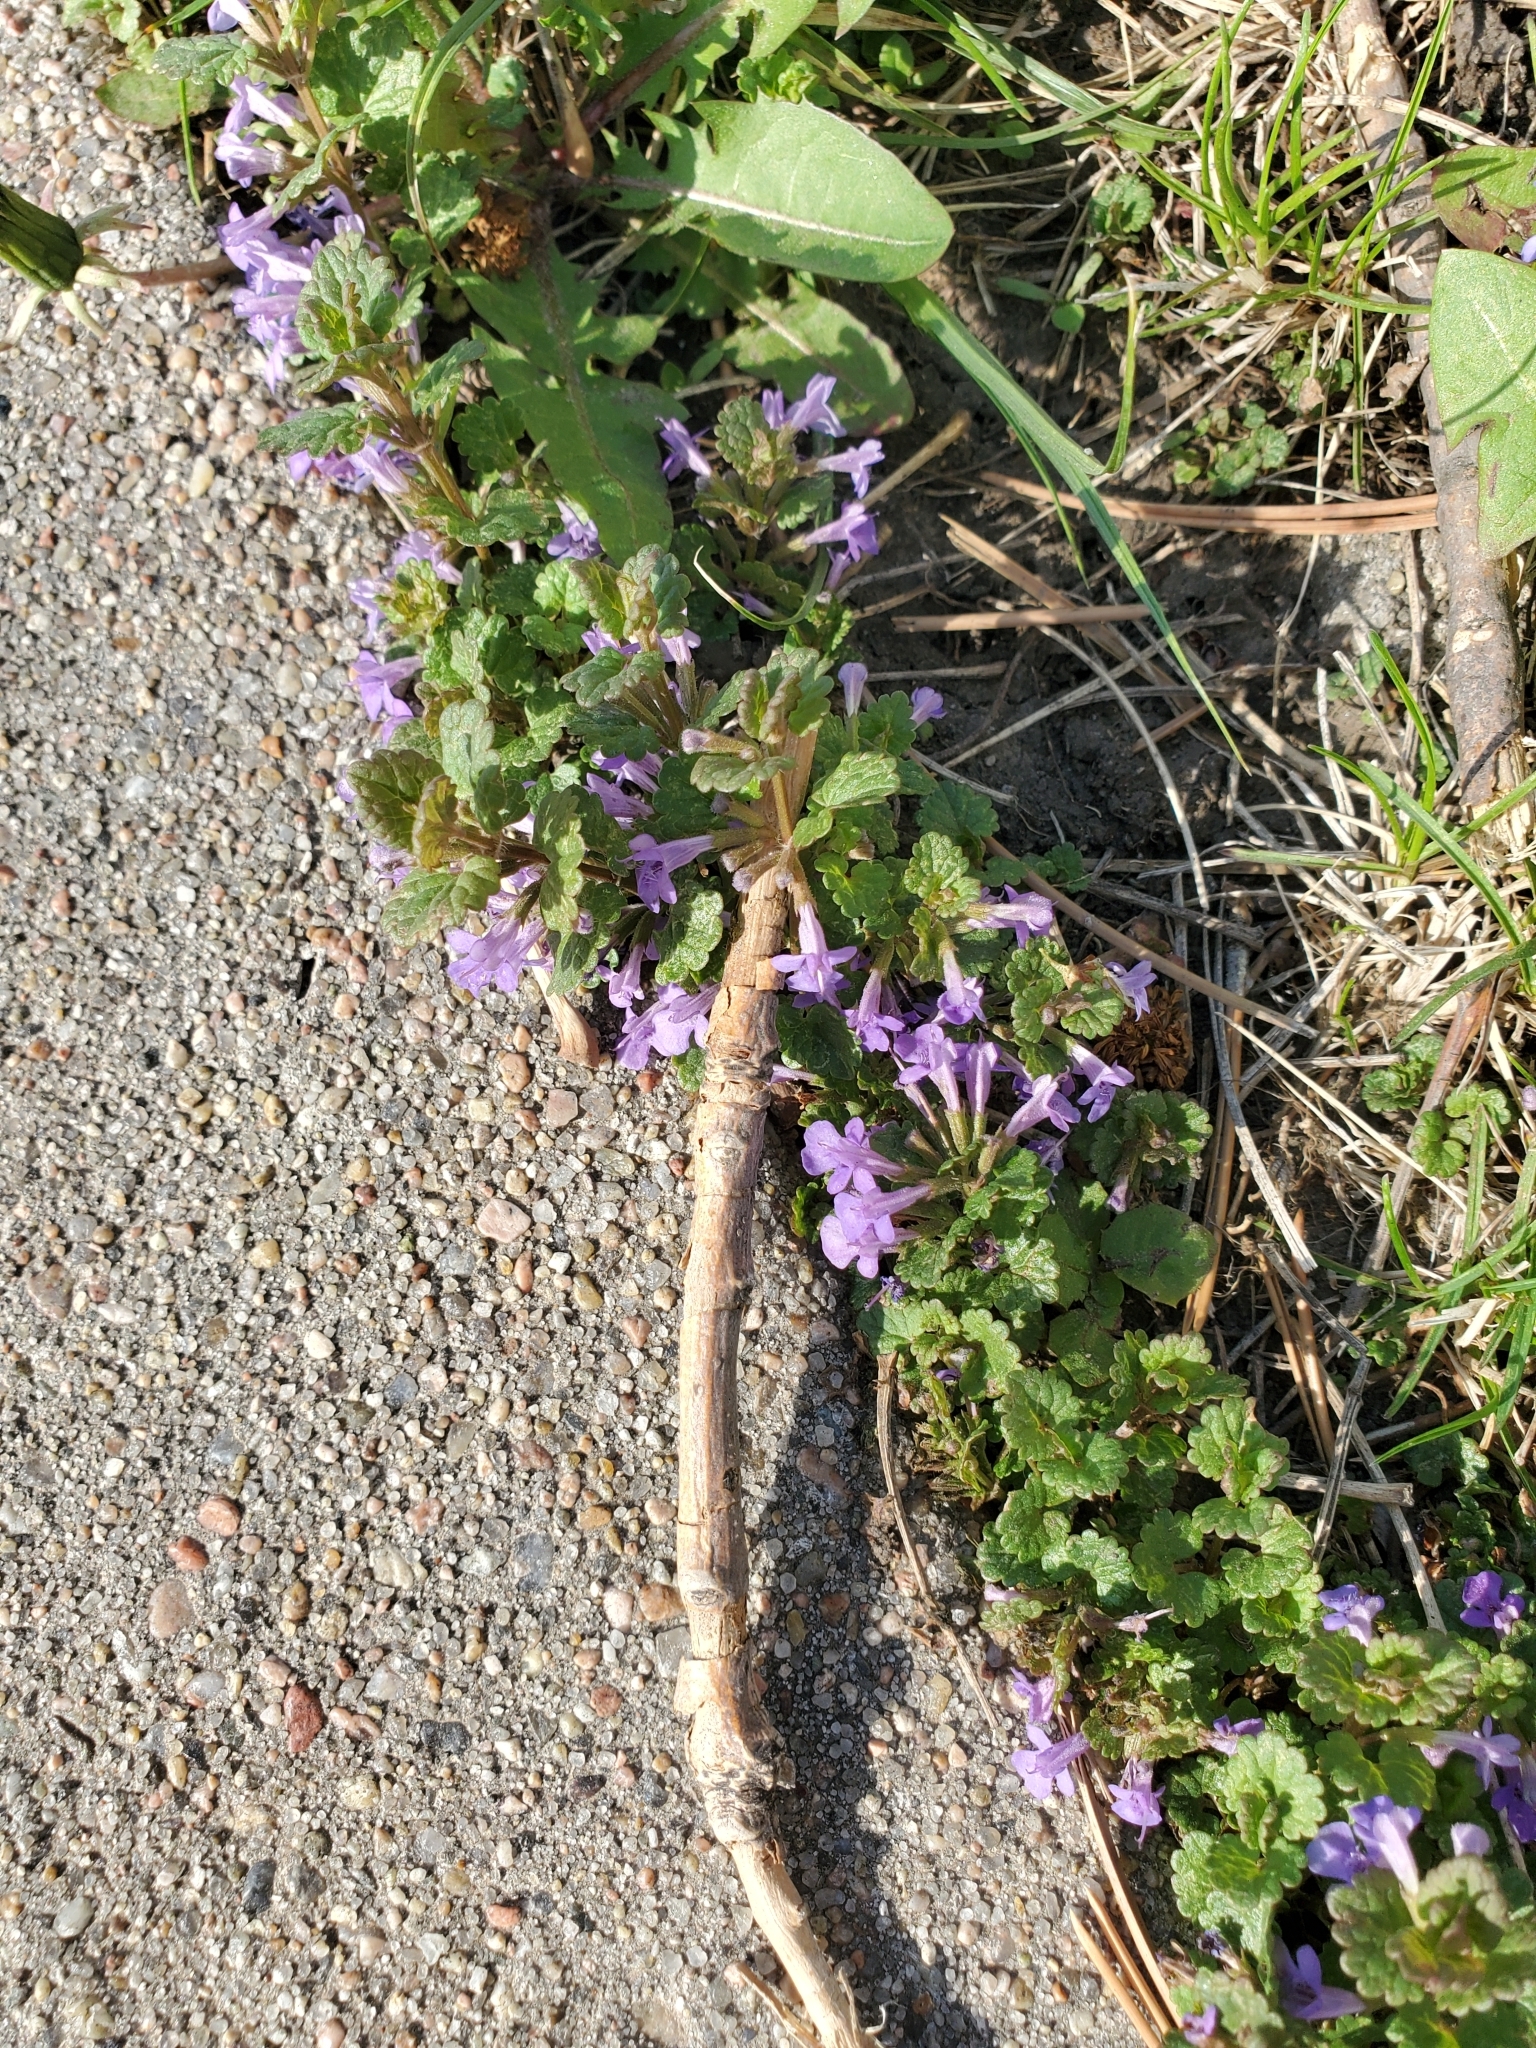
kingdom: Plantae
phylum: Tracheophyta
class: Magnoliopsida
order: Lamiales
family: Lamiaceae
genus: Glechoma
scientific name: Glechoma hederacea
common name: Ground ivy
